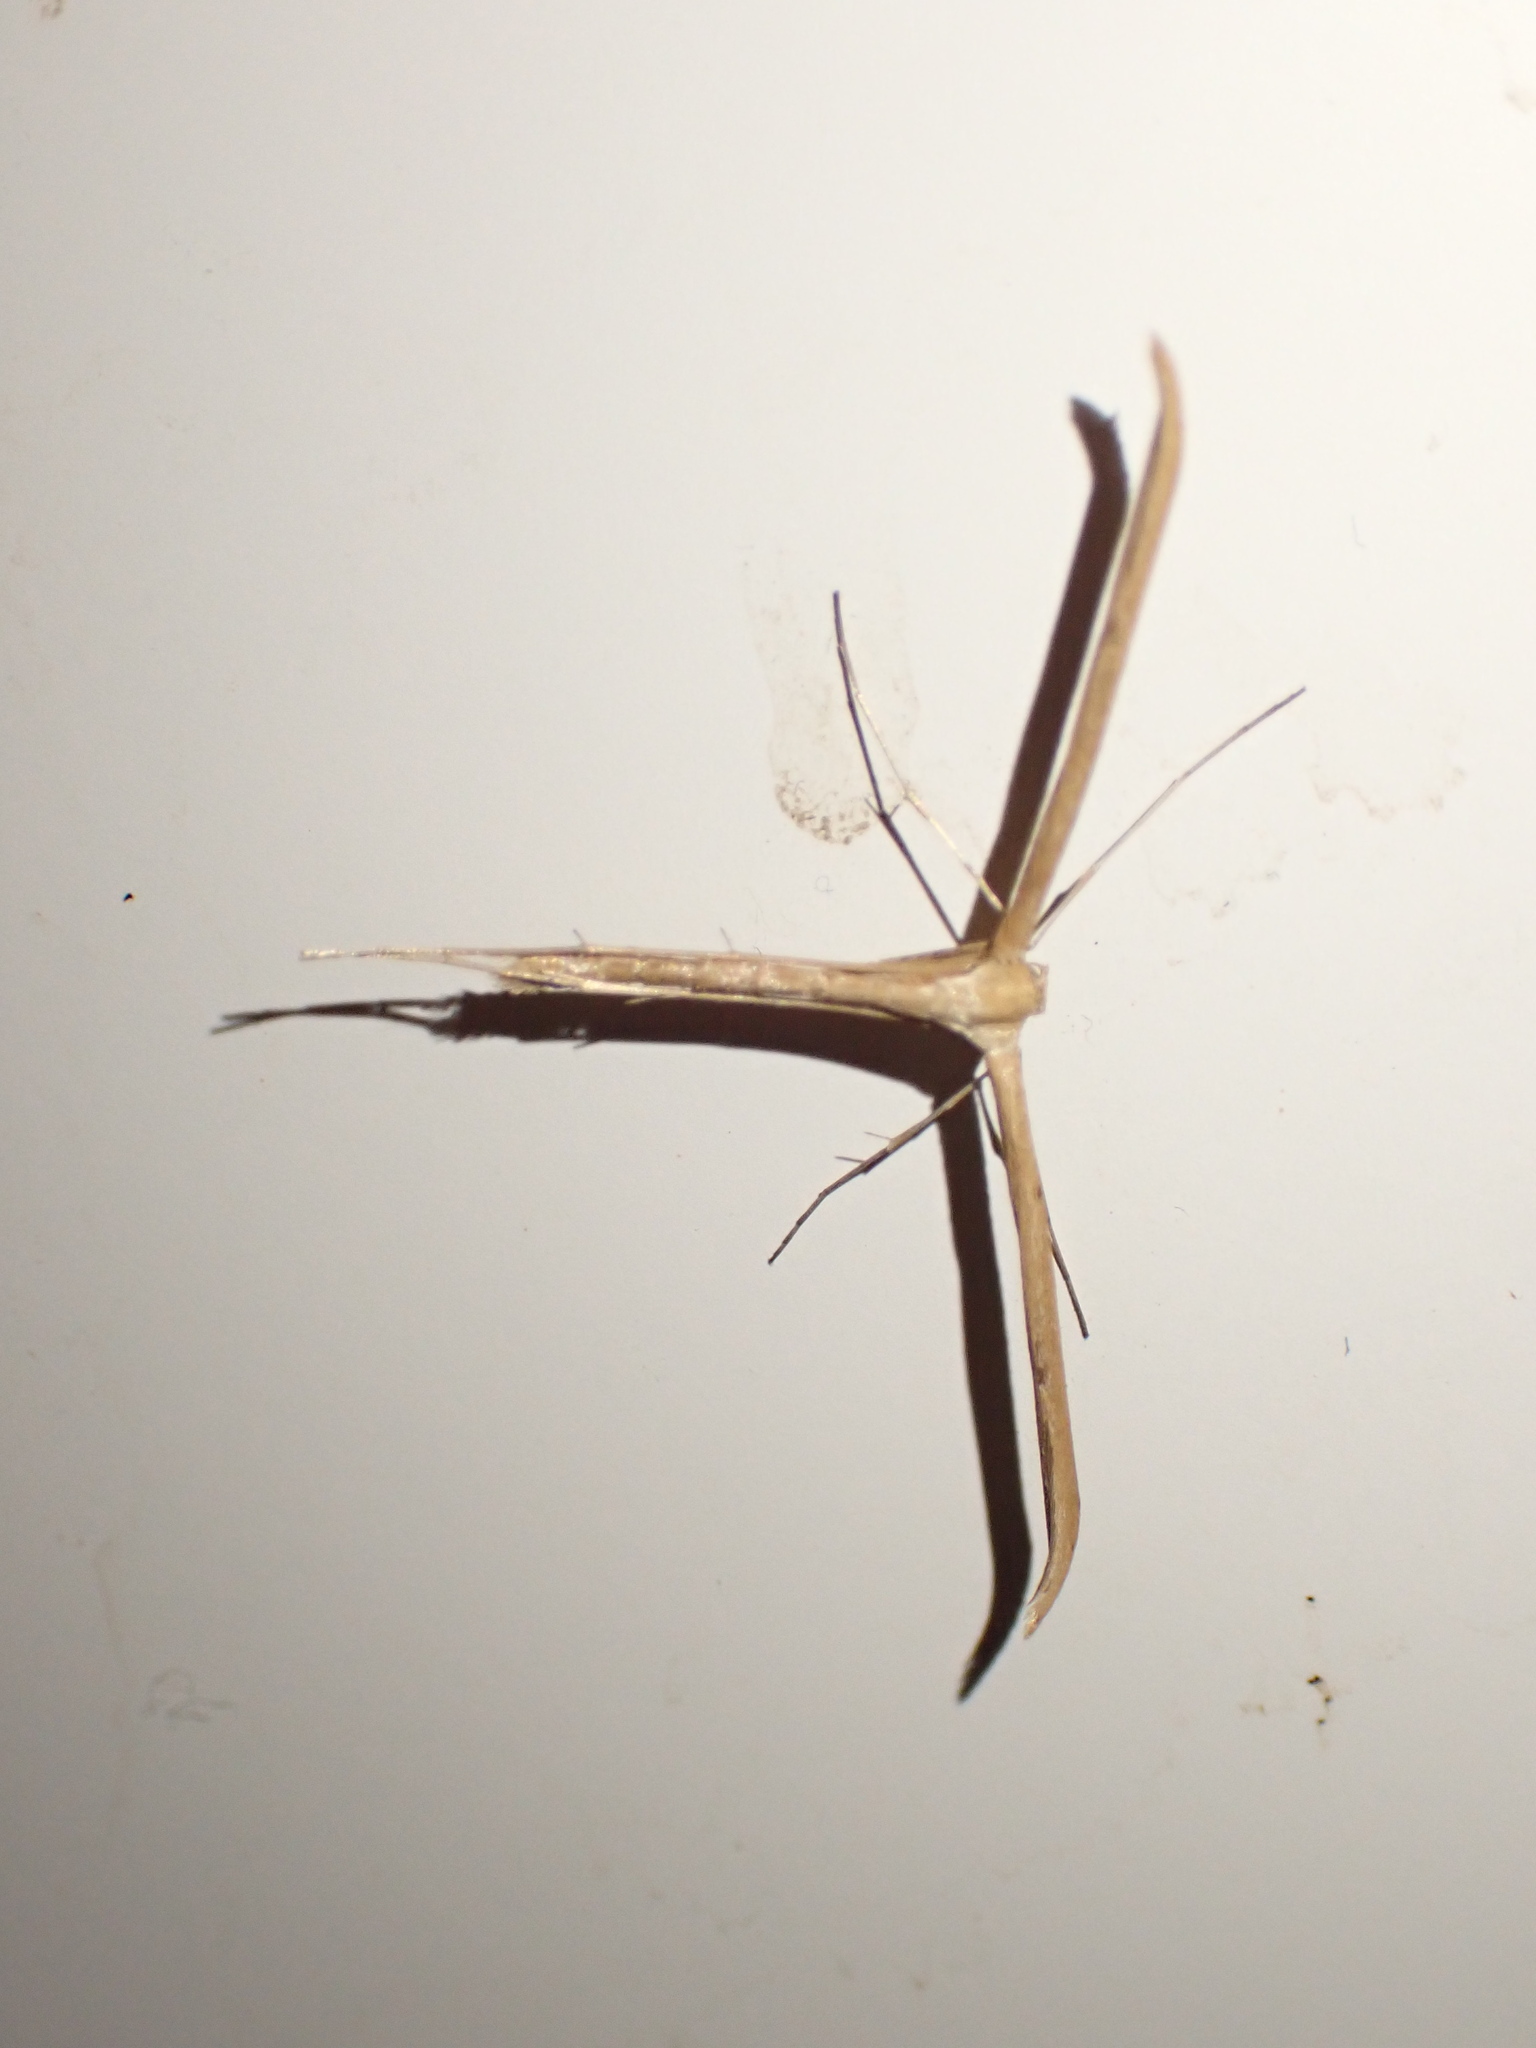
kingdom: Animalia
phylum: Arthropoda
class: Insecta
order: Lepidoptera
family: Pterophoridae
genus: Emmelina
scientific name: Emmelina monodactyla
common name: Common plume
